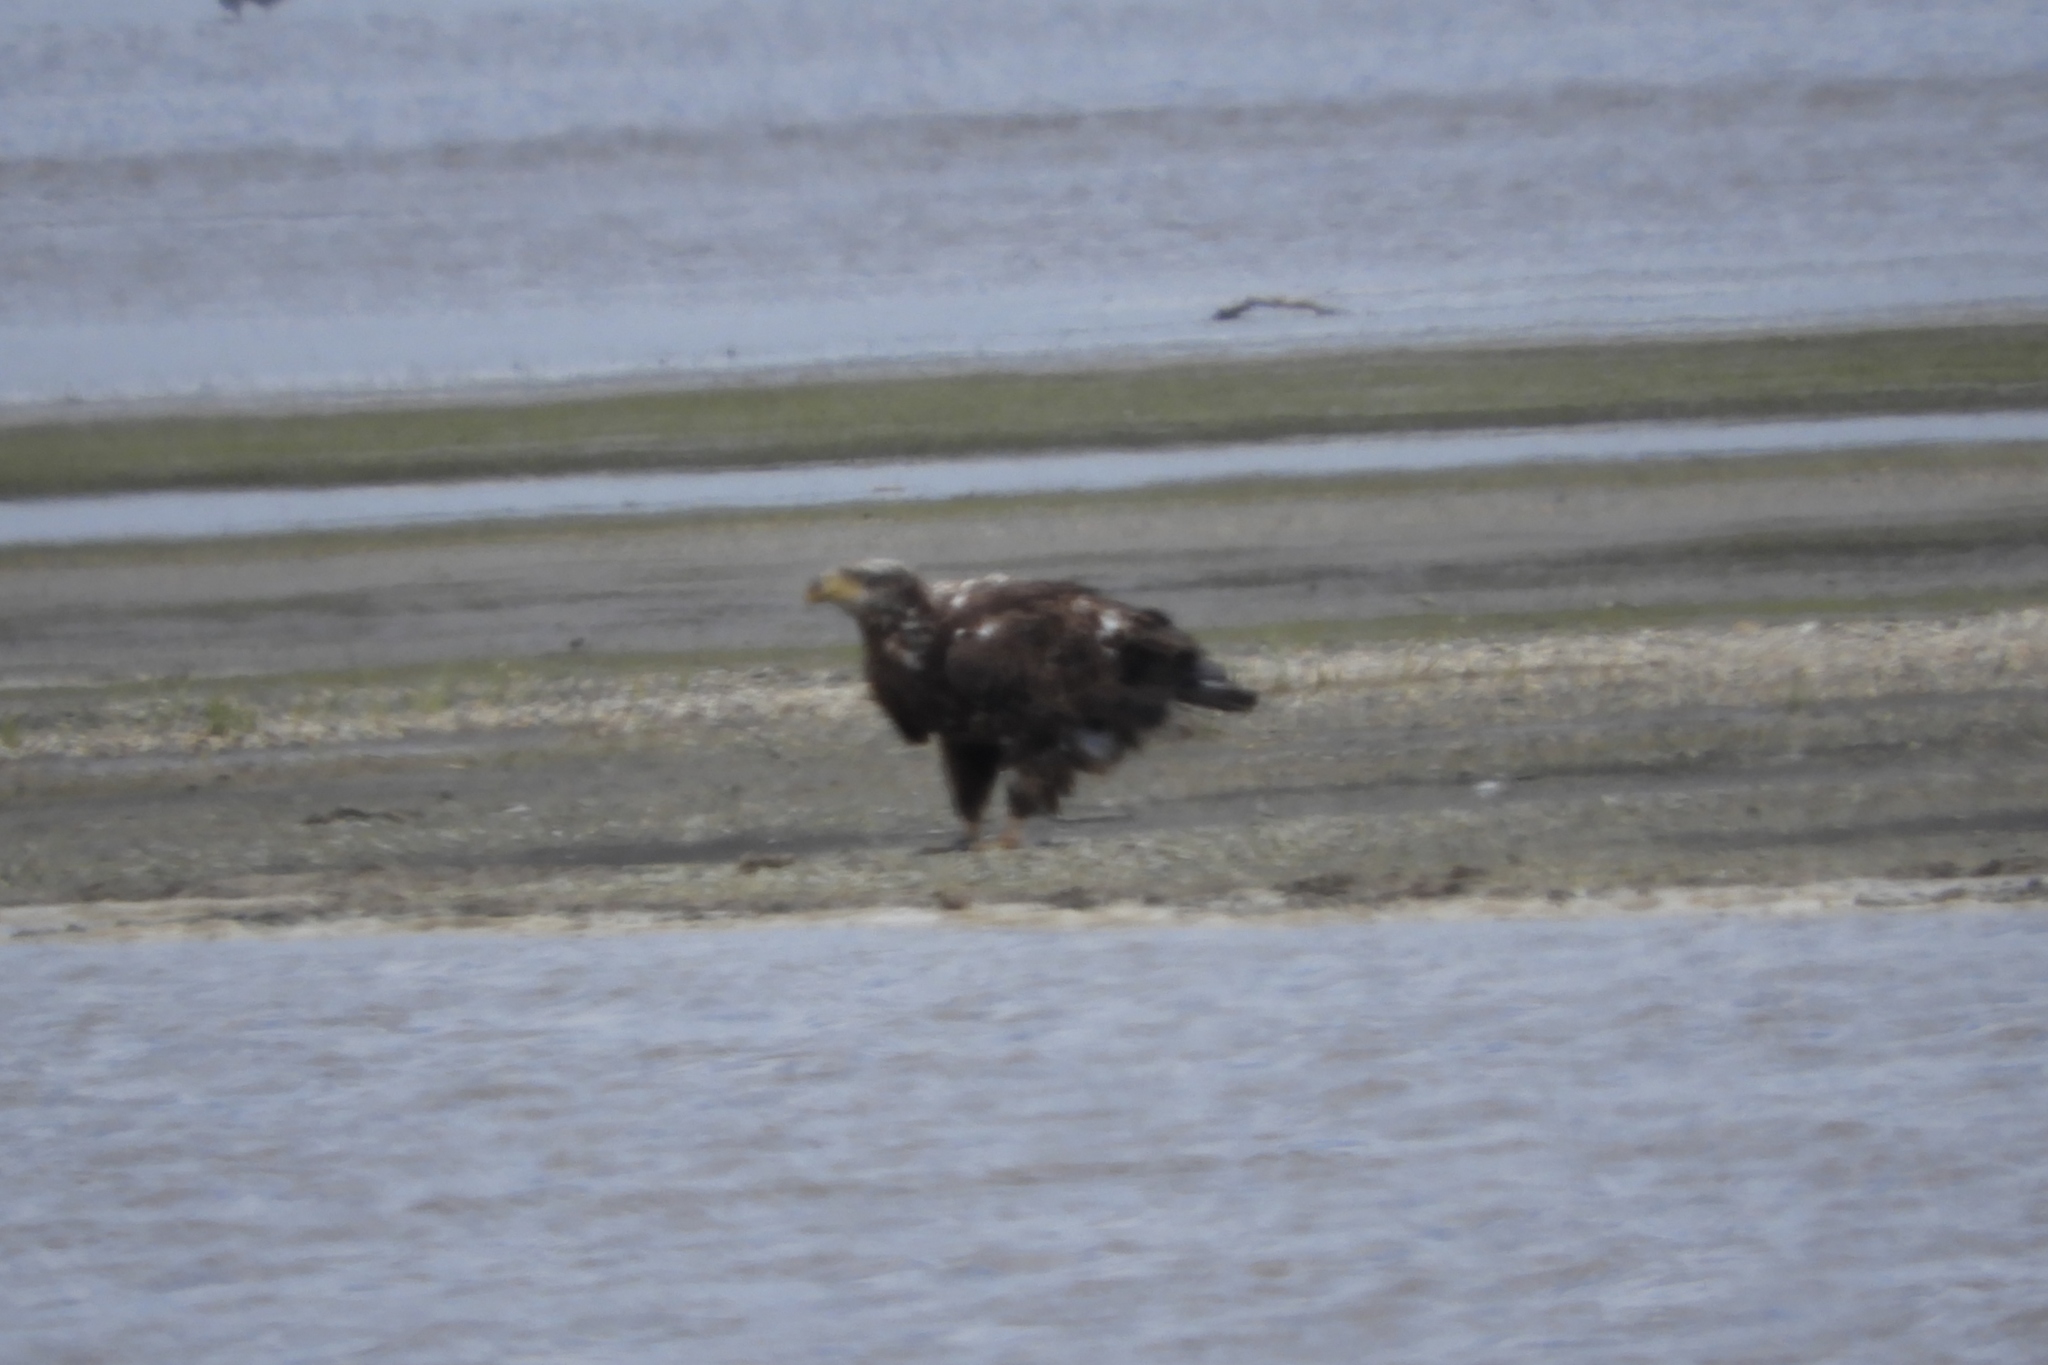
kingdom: Animalia
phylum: Chordata
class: Aves
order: Accipitriformes
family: Accipitridae
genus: Haliaeetus
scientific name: Haliaeetus leucocephalus
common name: Bald eagle
